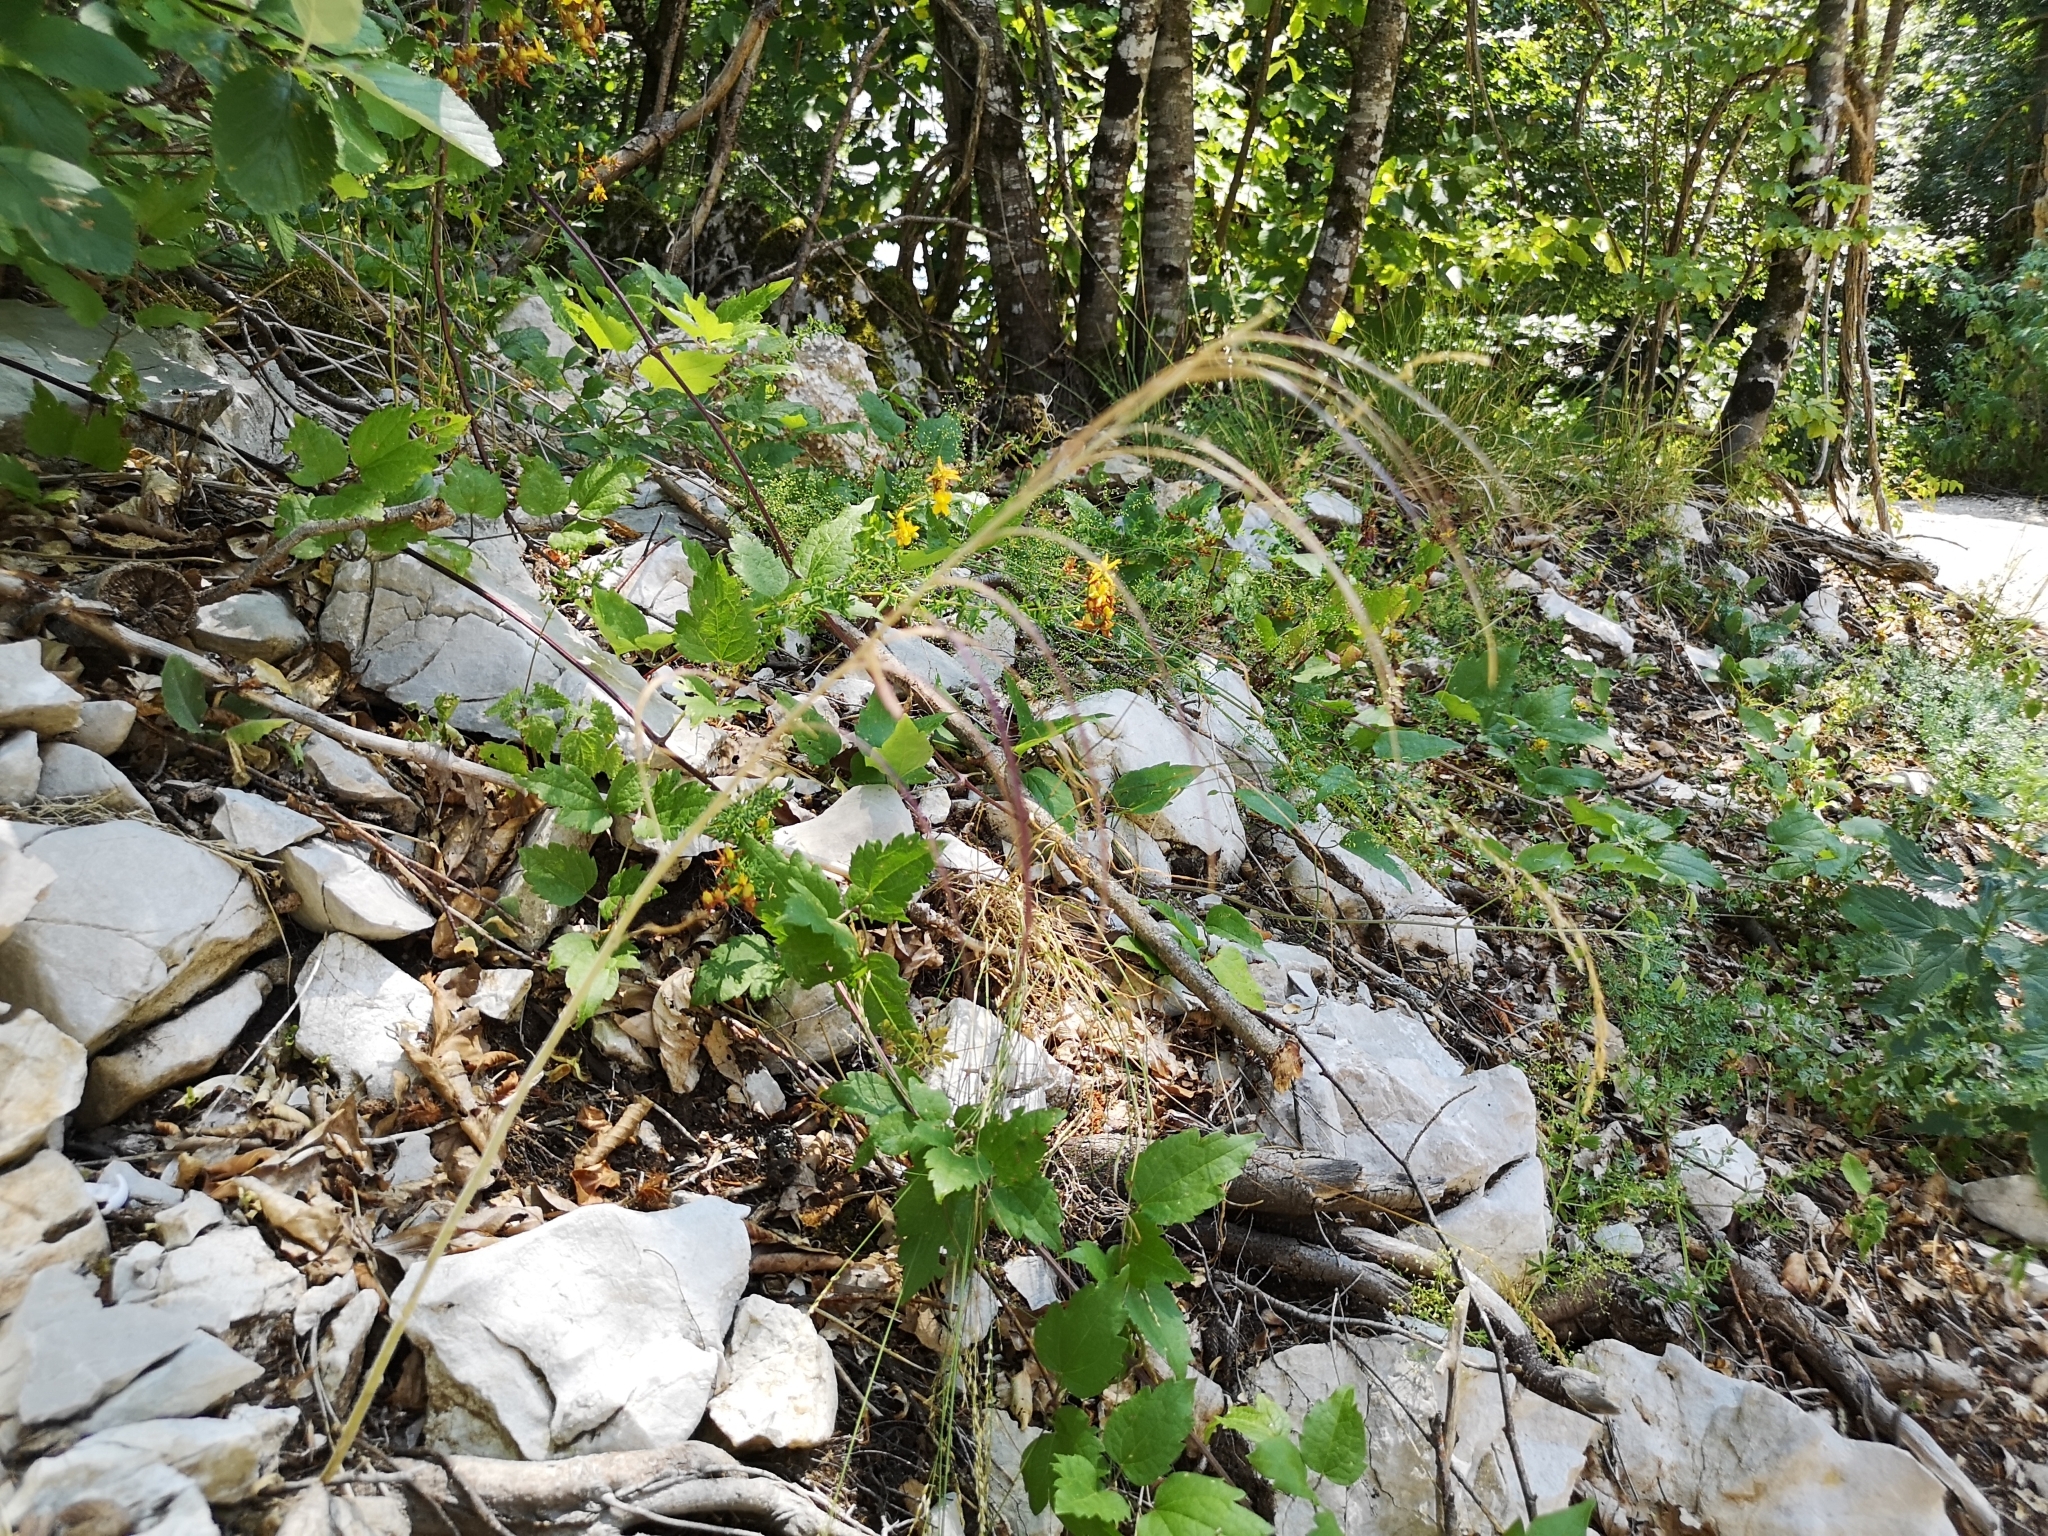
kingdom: Plantae
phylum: Tracheophyta
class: Magnoliopsida
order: Brassicales
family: Brassicaceae
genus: Pseudoturritis
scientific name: Pseudoturritis turrita
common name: Tower cress
